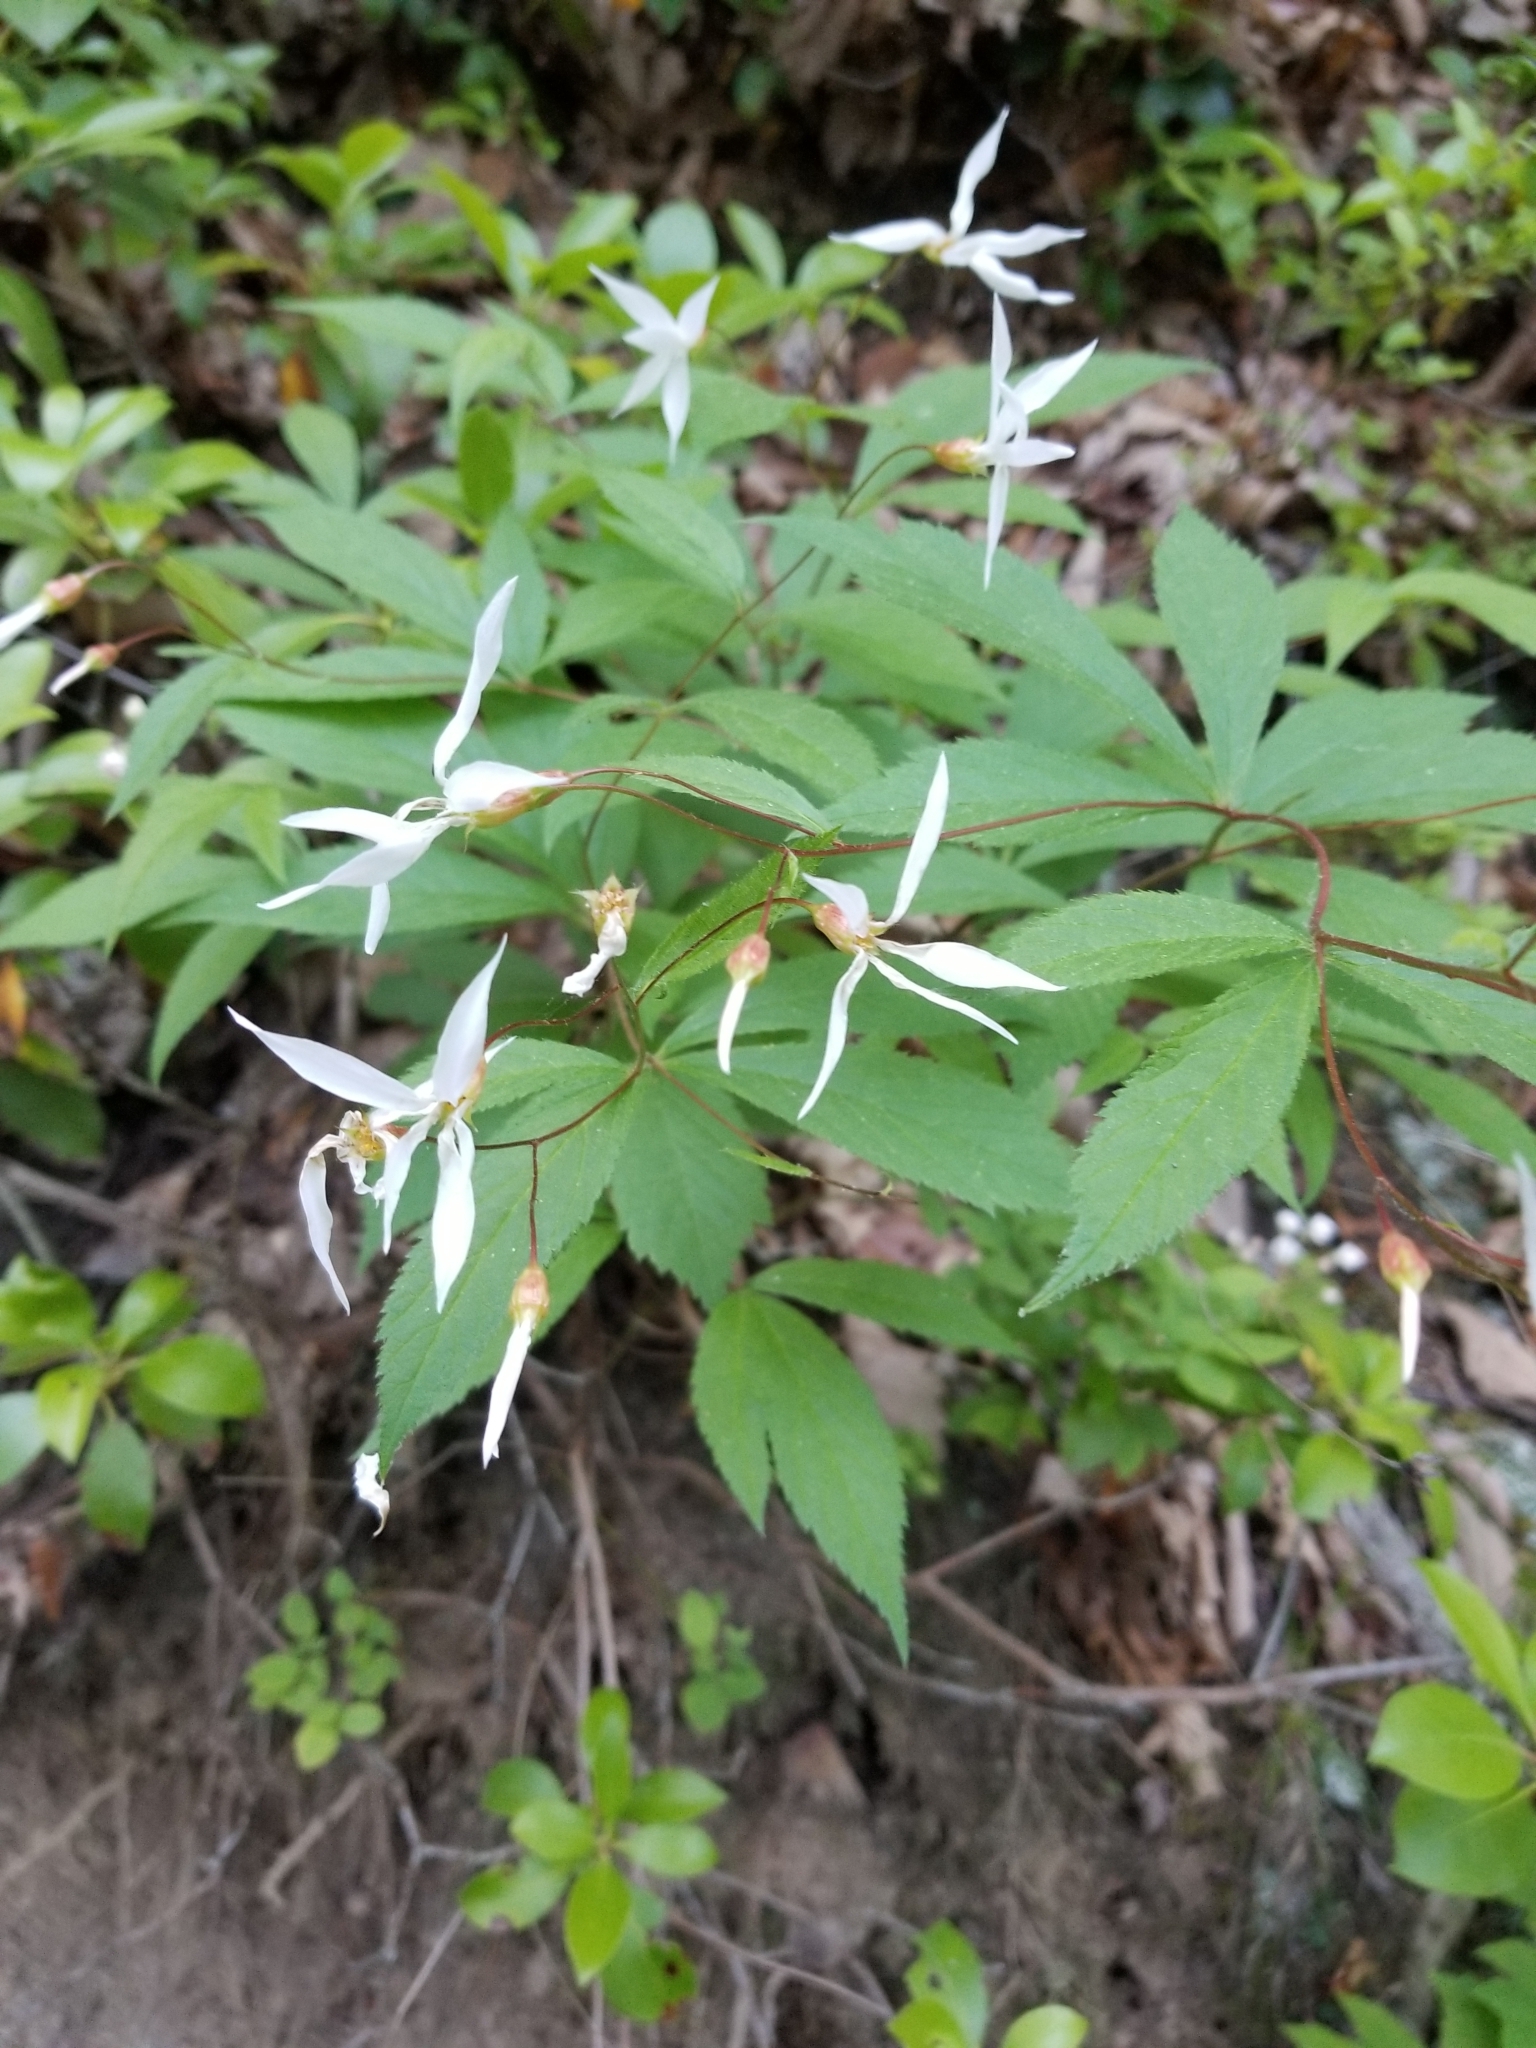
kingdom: Plantae
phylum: Tracheophyta
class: Magnoliopsida
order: Rosales
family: Rosaceae
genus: Gillenia
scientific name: Gillenia trifoliata
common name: Bowman's-root
